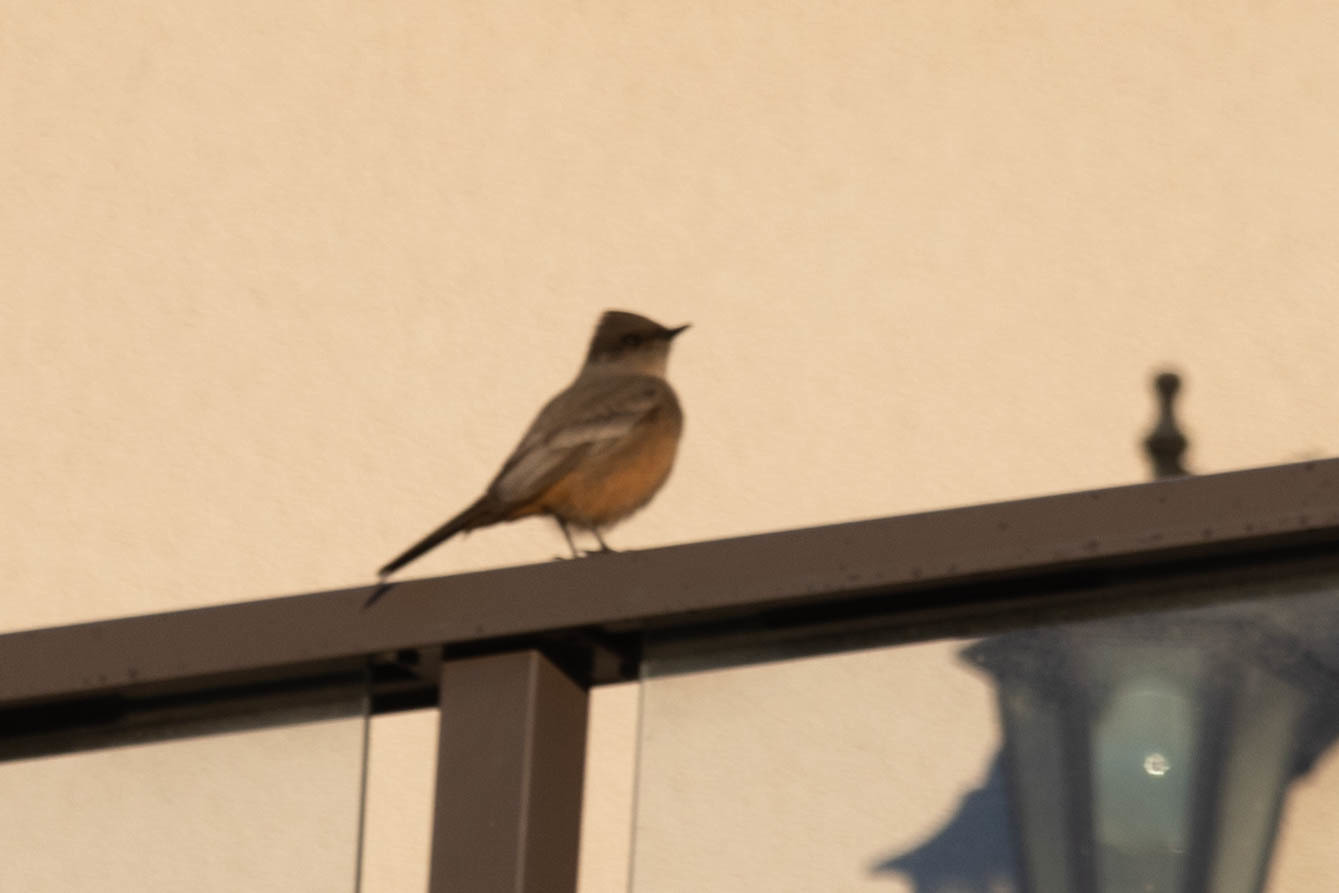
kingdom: Animalia
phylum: Chordata
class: Aves
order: Passeriformes
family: Tyrannidae
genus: Sayornis
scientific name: Sayornis saya
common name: Say's phoebe
